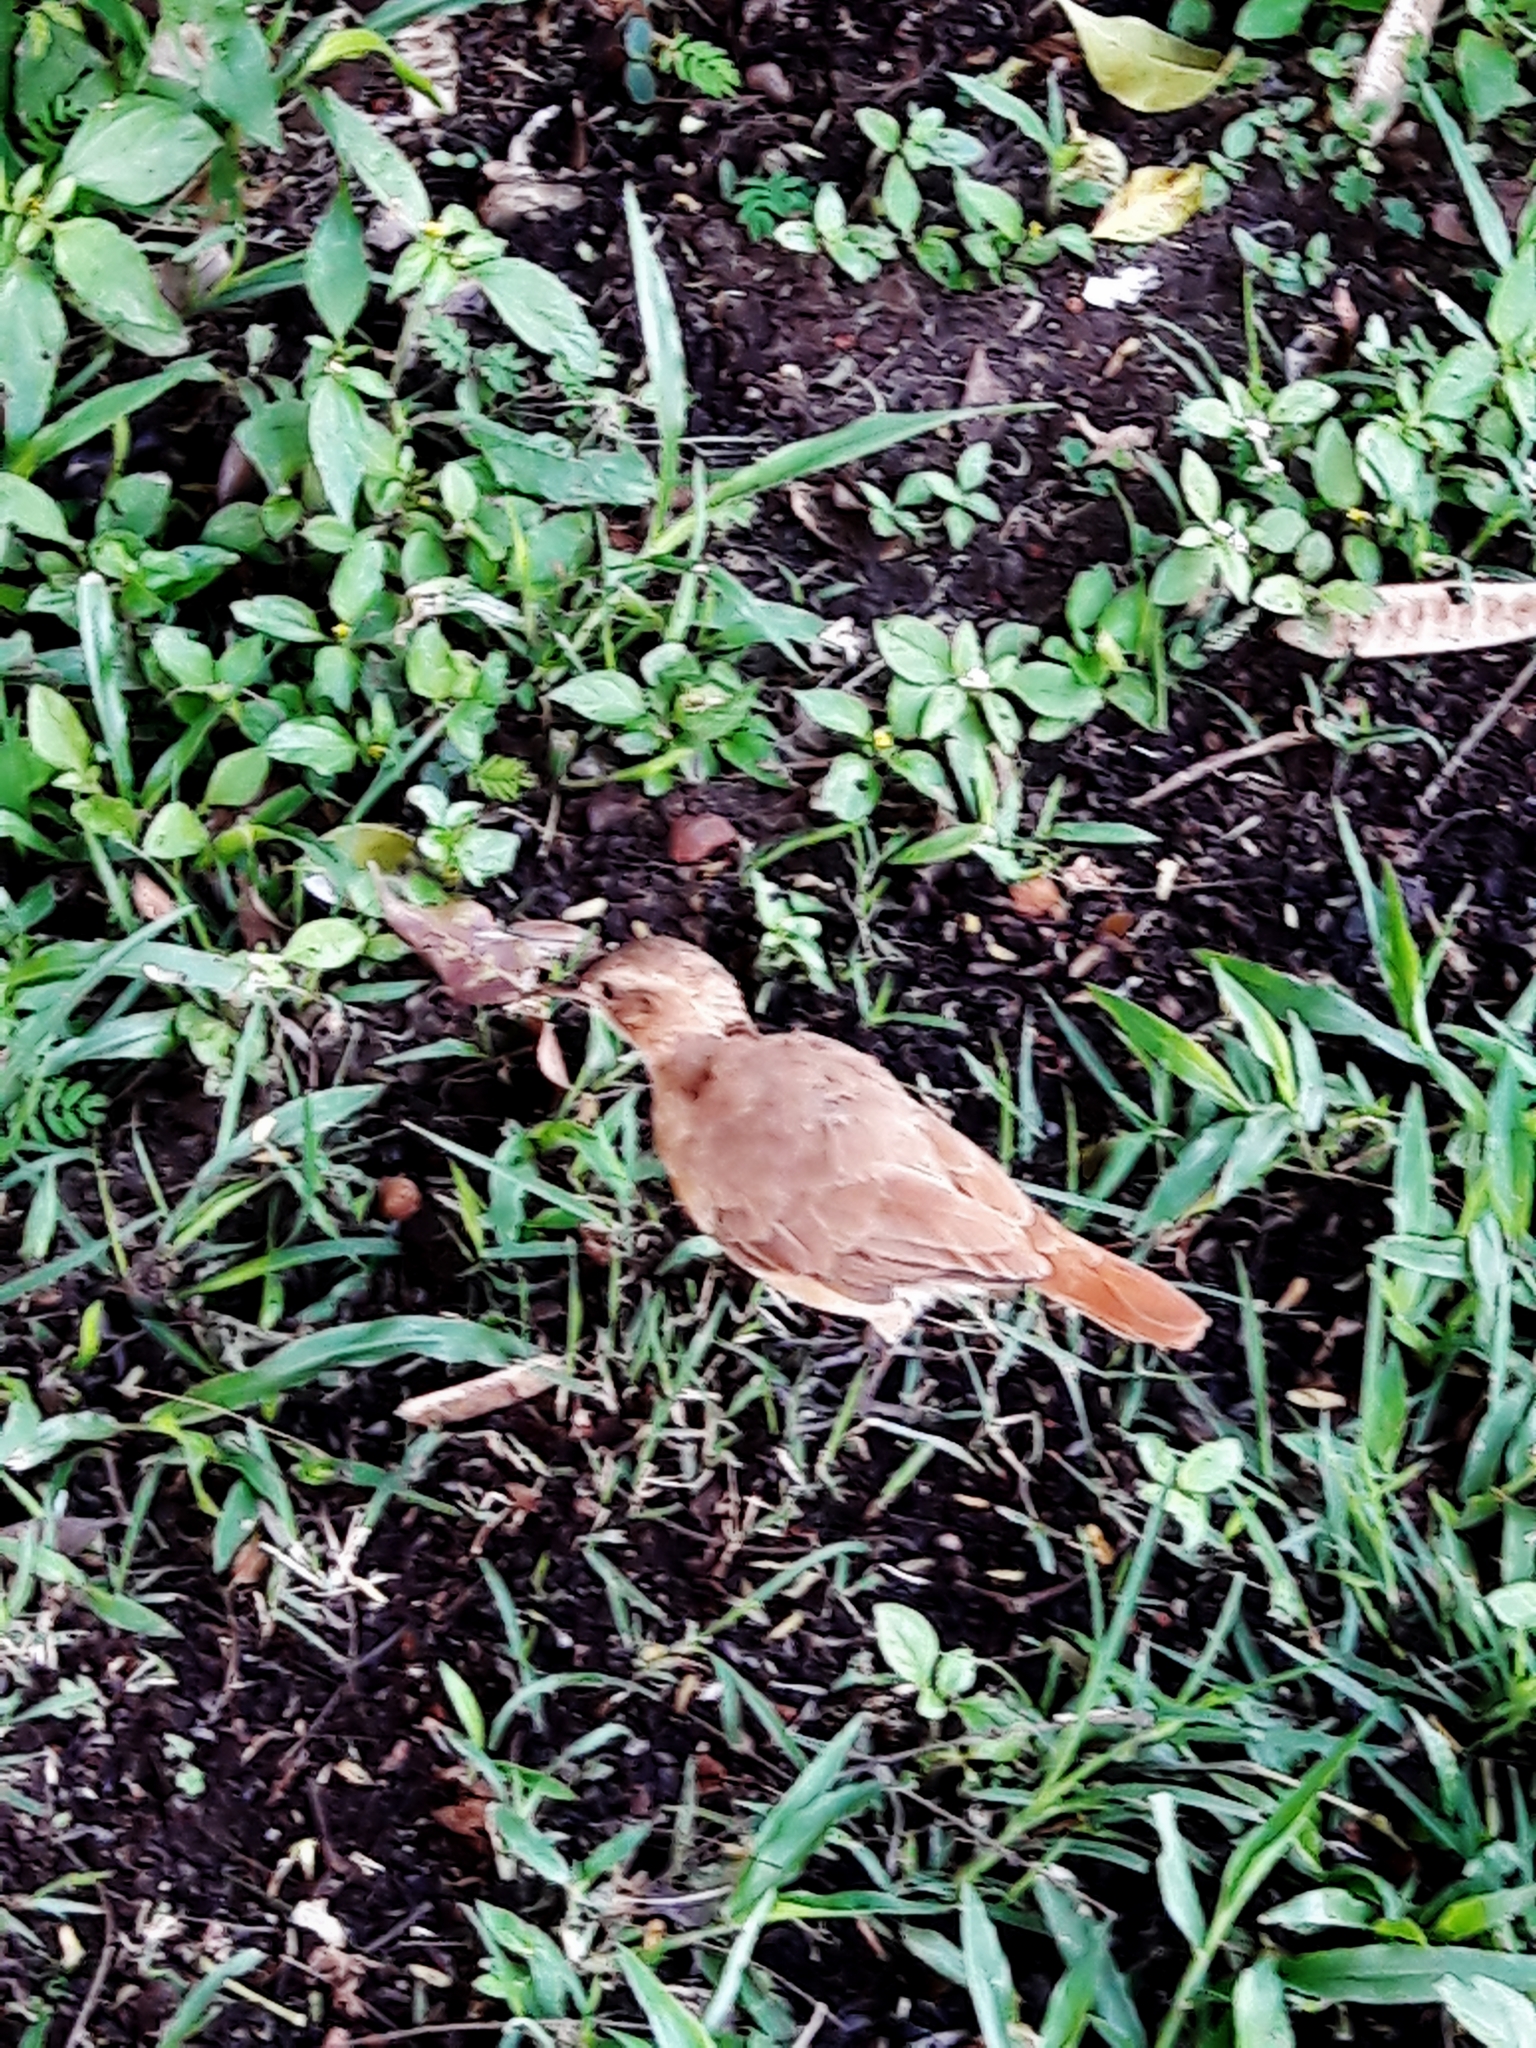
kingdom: Animalia
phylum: Chordata
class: Aves
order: Passeriformes
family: Furnariidae
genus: Furnarius
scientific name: Furnarius rufus
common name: Rufous hornero
